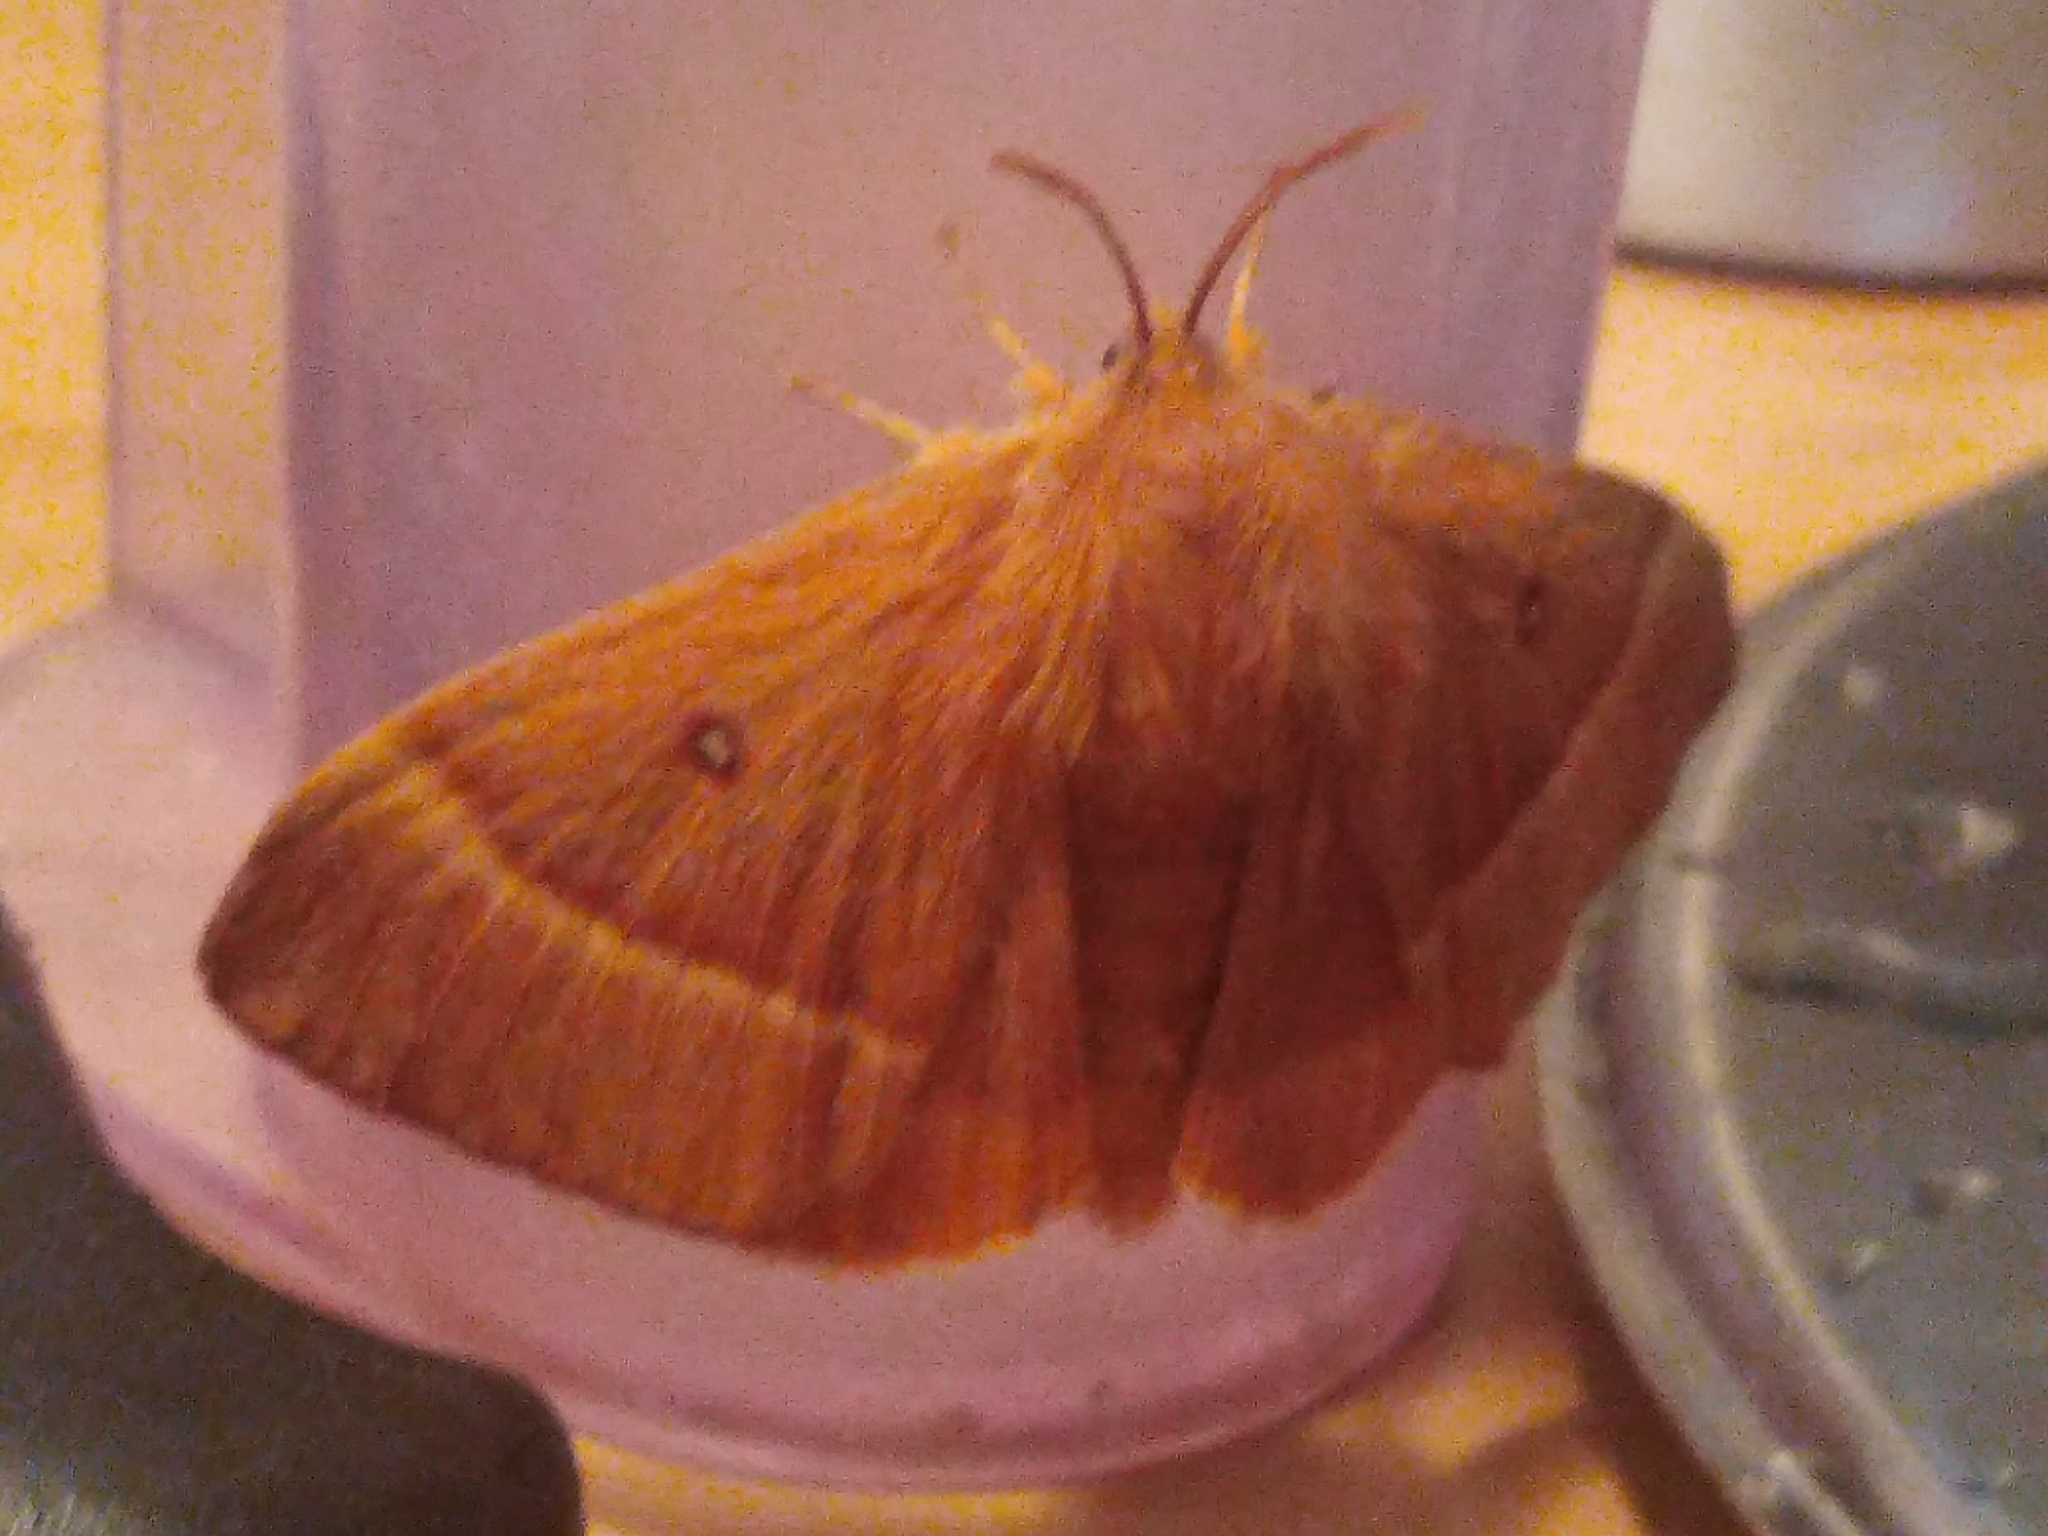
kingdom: Animalia
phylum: Arthropoda
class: Insecta
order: Lepidoptera
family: Lasiocampidae
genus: Lasiocampa
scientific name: Lasiocampa quercus
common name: Oak eggar
